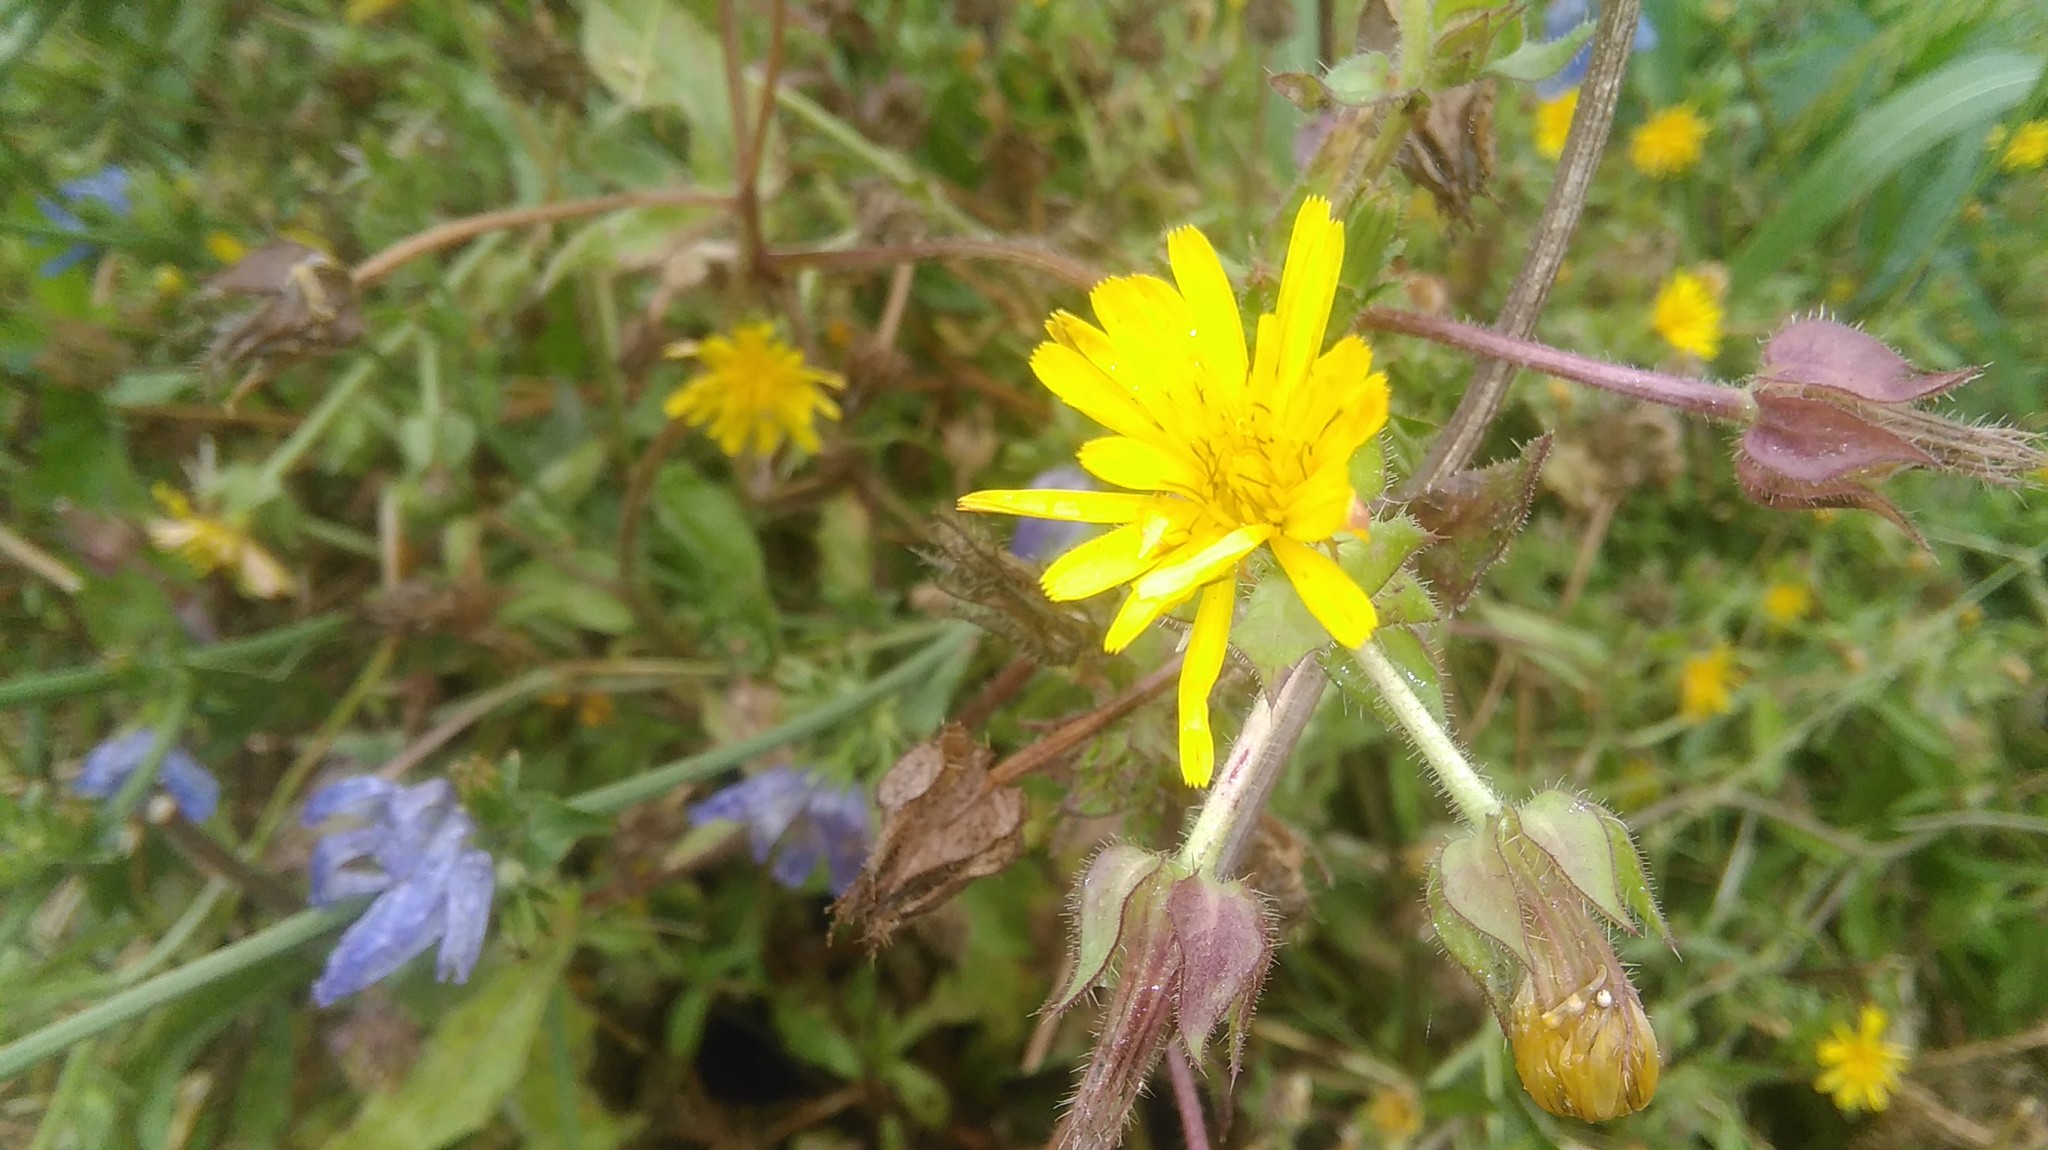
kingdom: Plantae
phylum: Tracheophyta
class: Magnoliopsida
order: Asterales
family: Asteraceae
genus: Helminthotheca
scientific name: Helminthotheca echioides
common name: Ox-tongue
